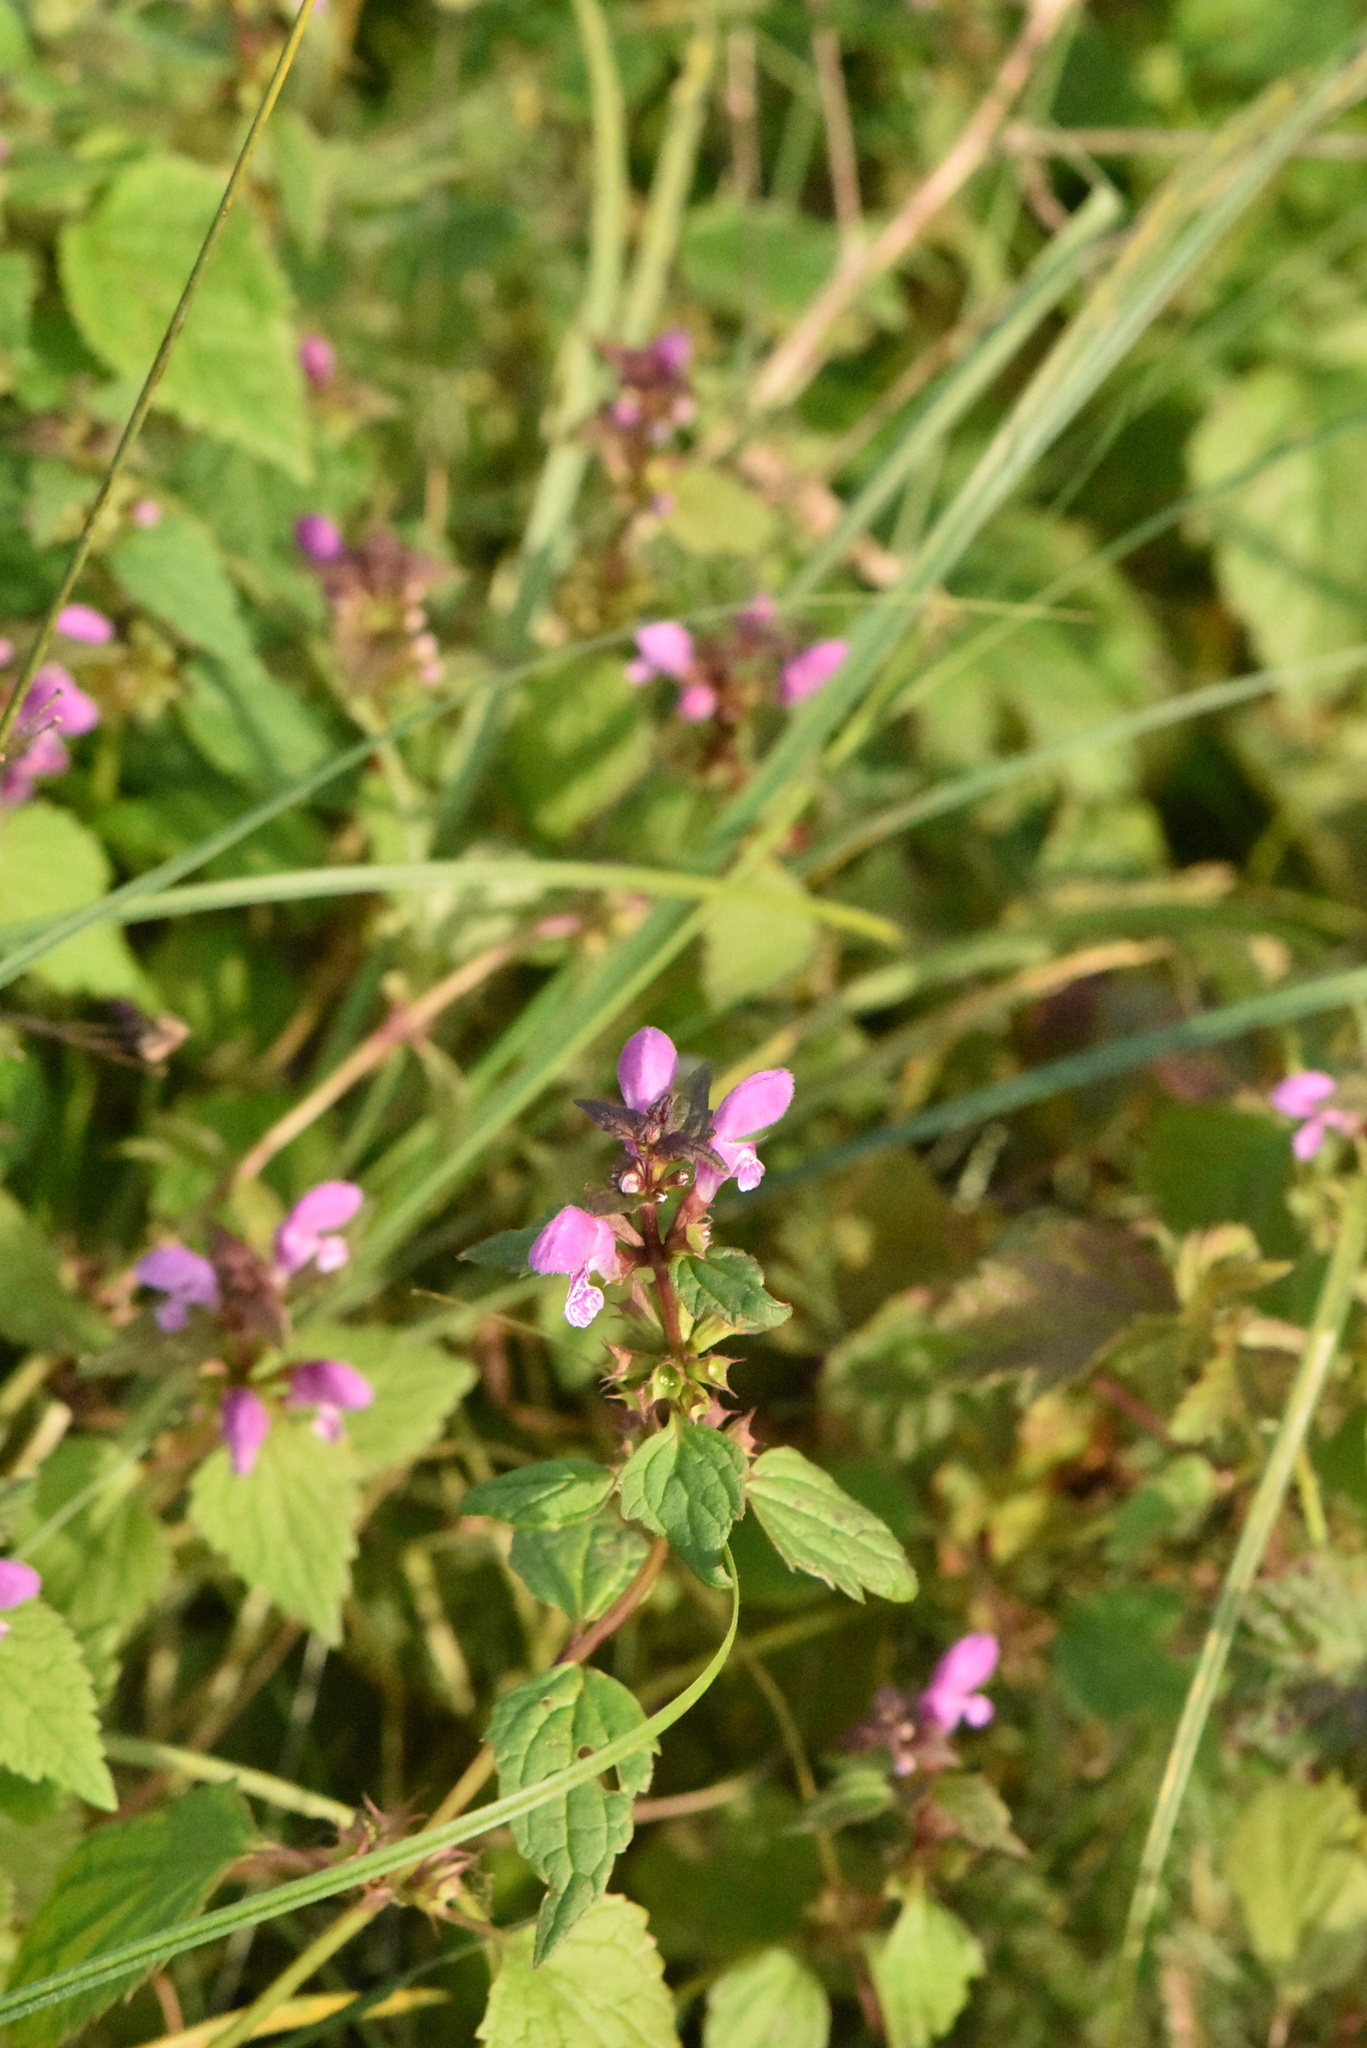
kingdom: Plantae
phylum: Tracheophyta
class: Magnoliopsida
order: Lamiales
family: Lamiaceae
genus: Lamium
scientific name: Lamium maculatum
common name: Spotted dead-nettle
